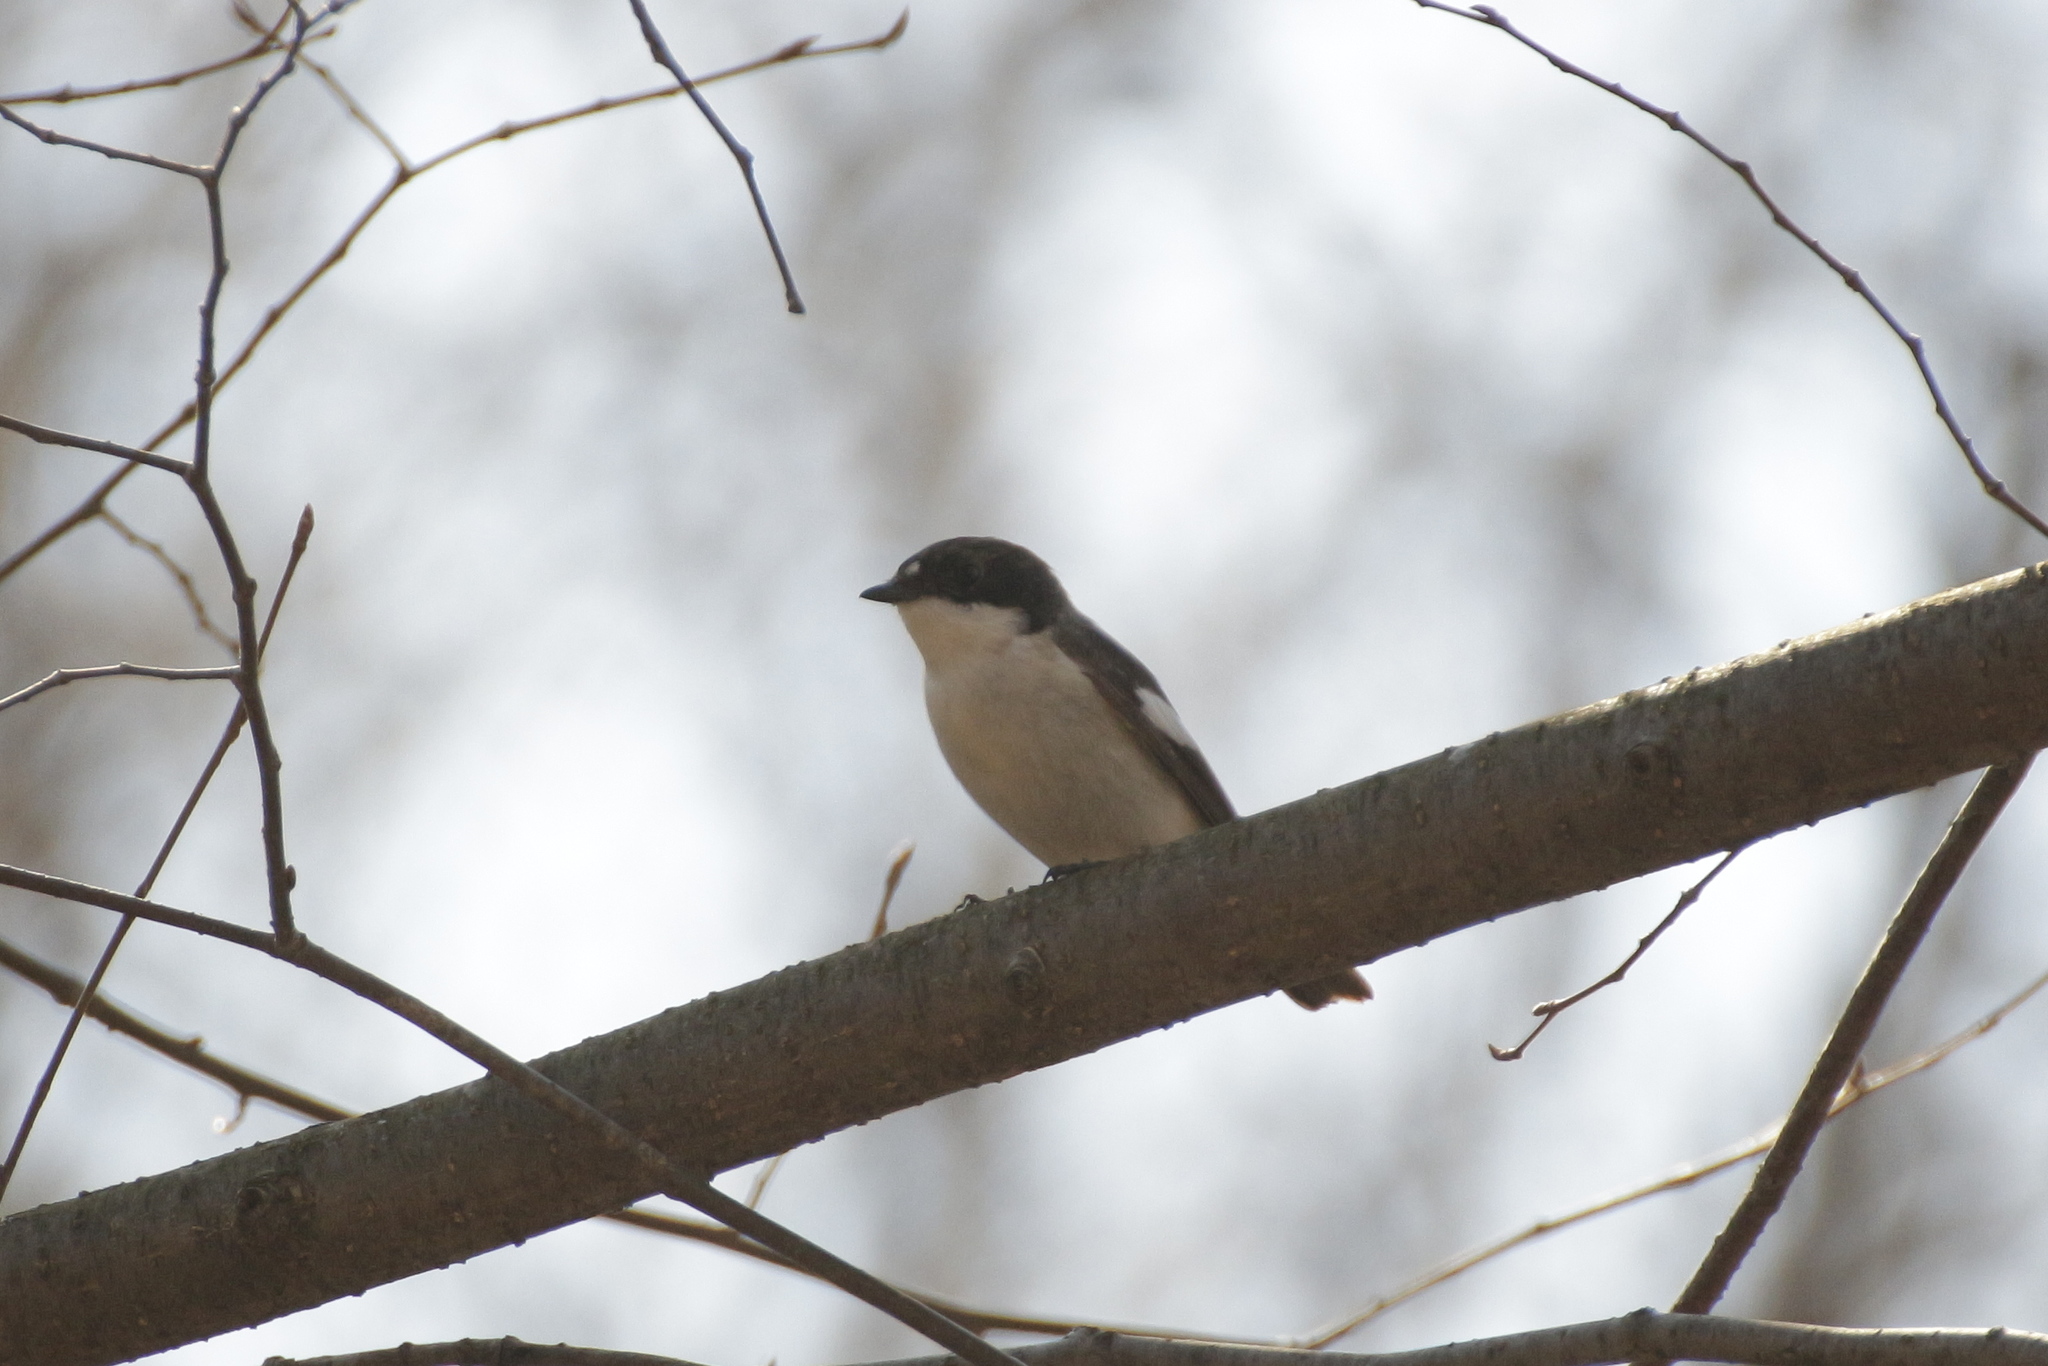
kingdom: Animalia
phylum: Chordata
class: Aves
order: Passeriformes
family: Muscicapidae
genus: Ficedula
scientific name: Ficedula hypoleuca
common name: European pied flycatcher
